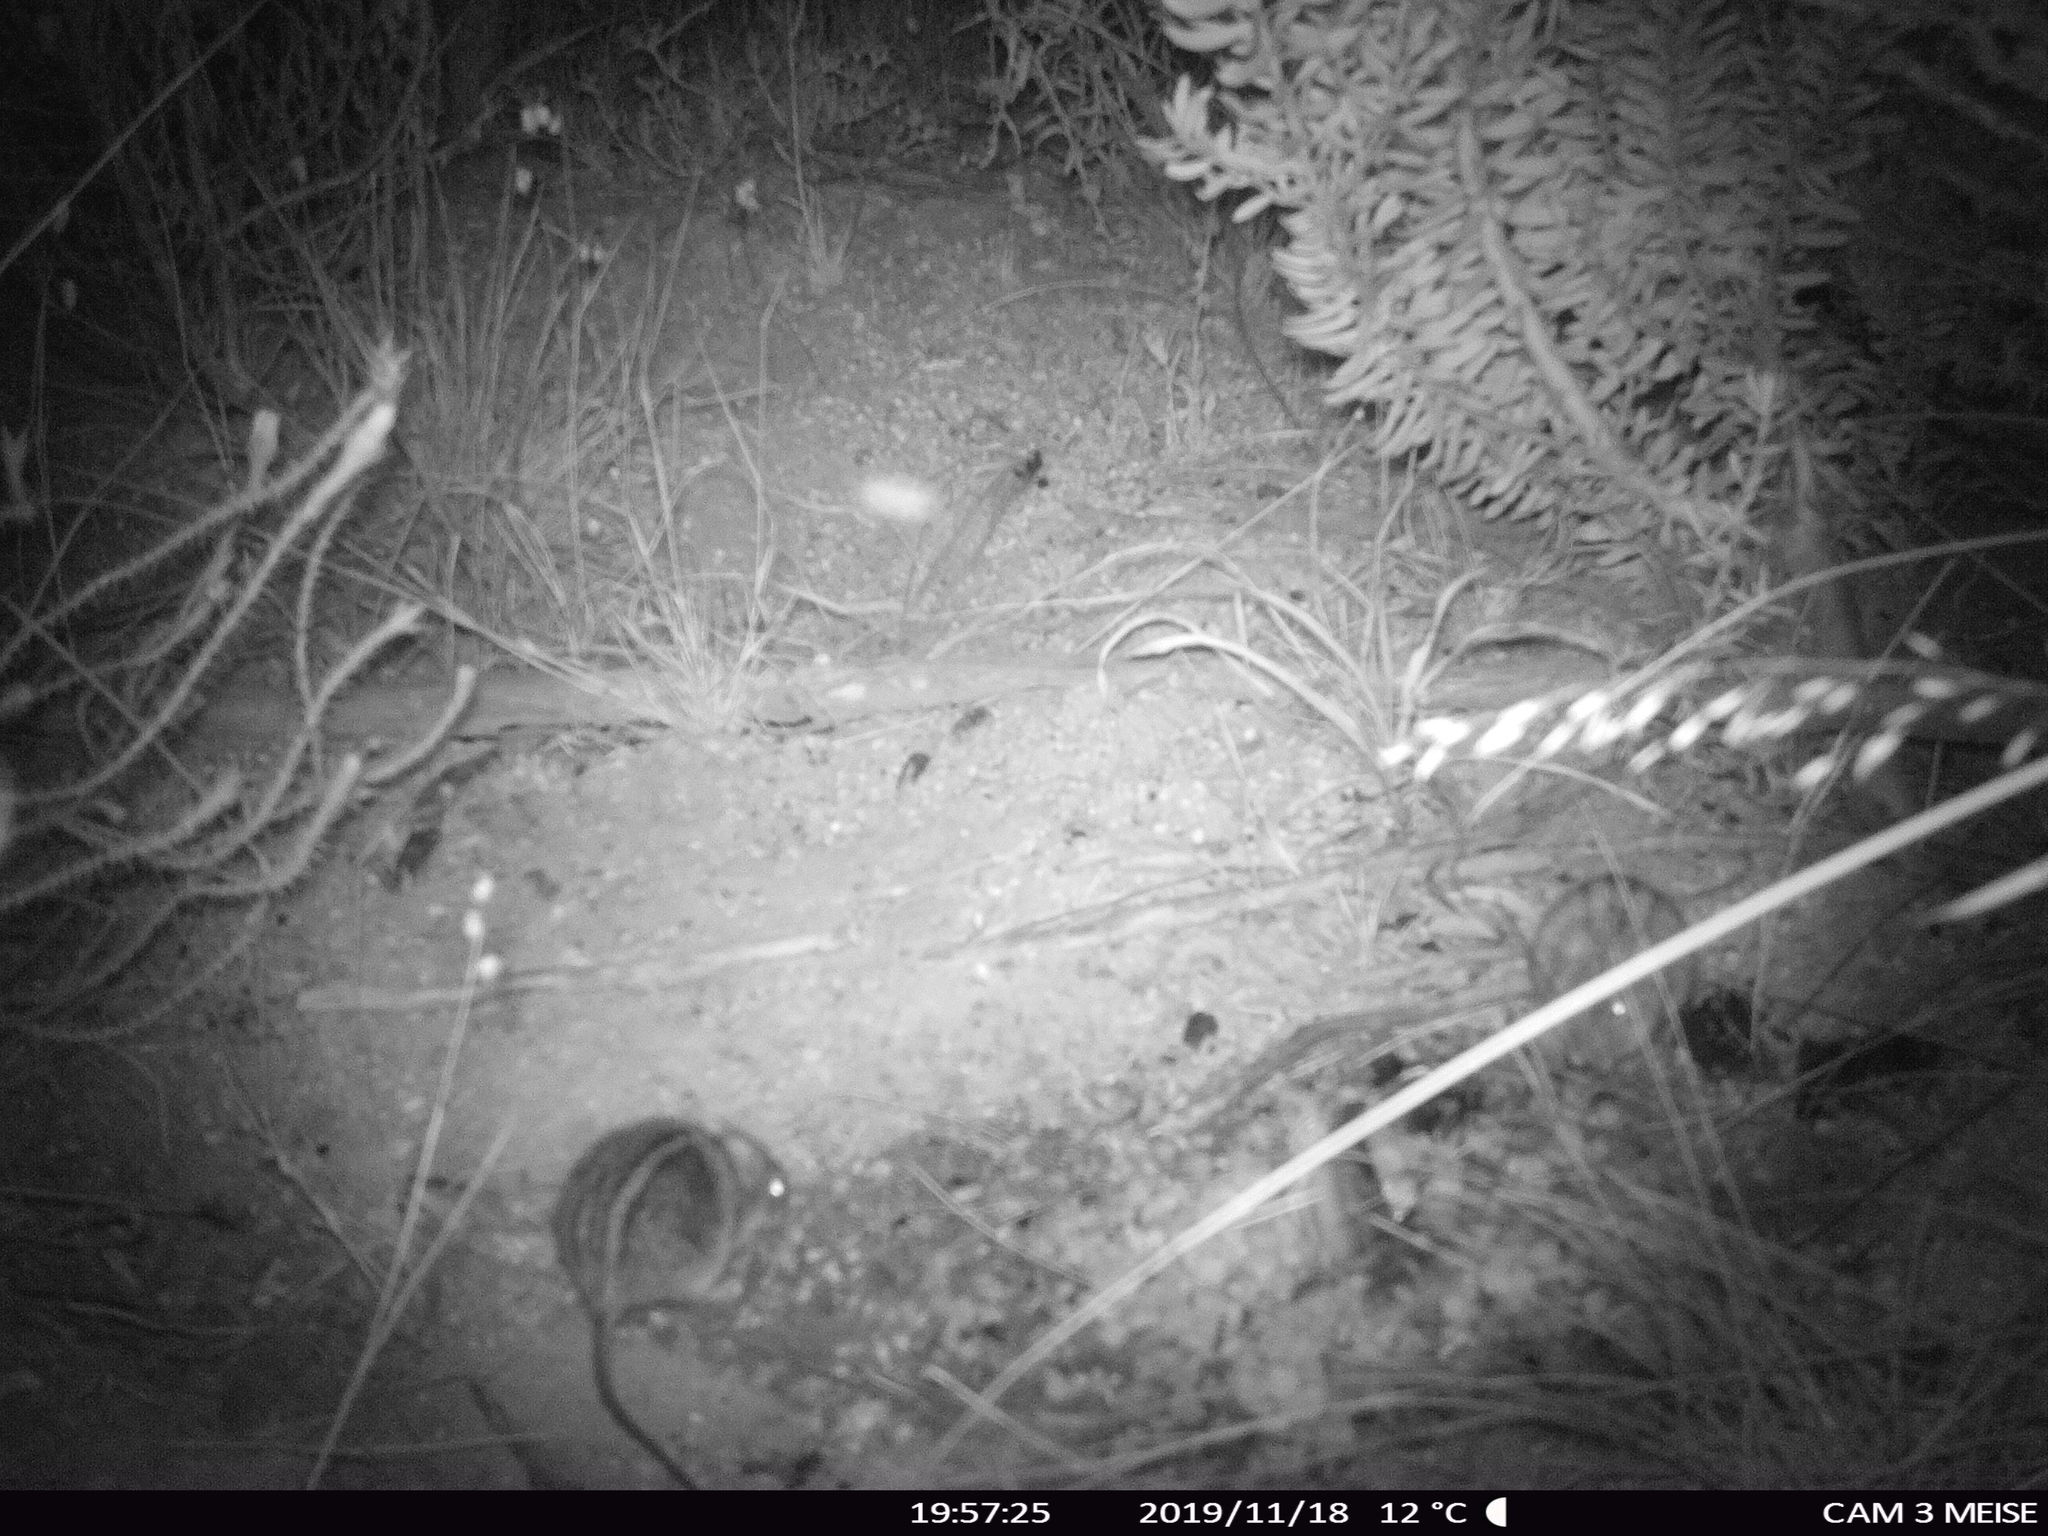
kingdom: Animalia
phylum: Chordata
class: Mammalia
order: Rodentia
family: Muridae
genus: Rhabdomys
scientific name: Rhabdomys pumilio
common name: Xeric four-striped grass rat
